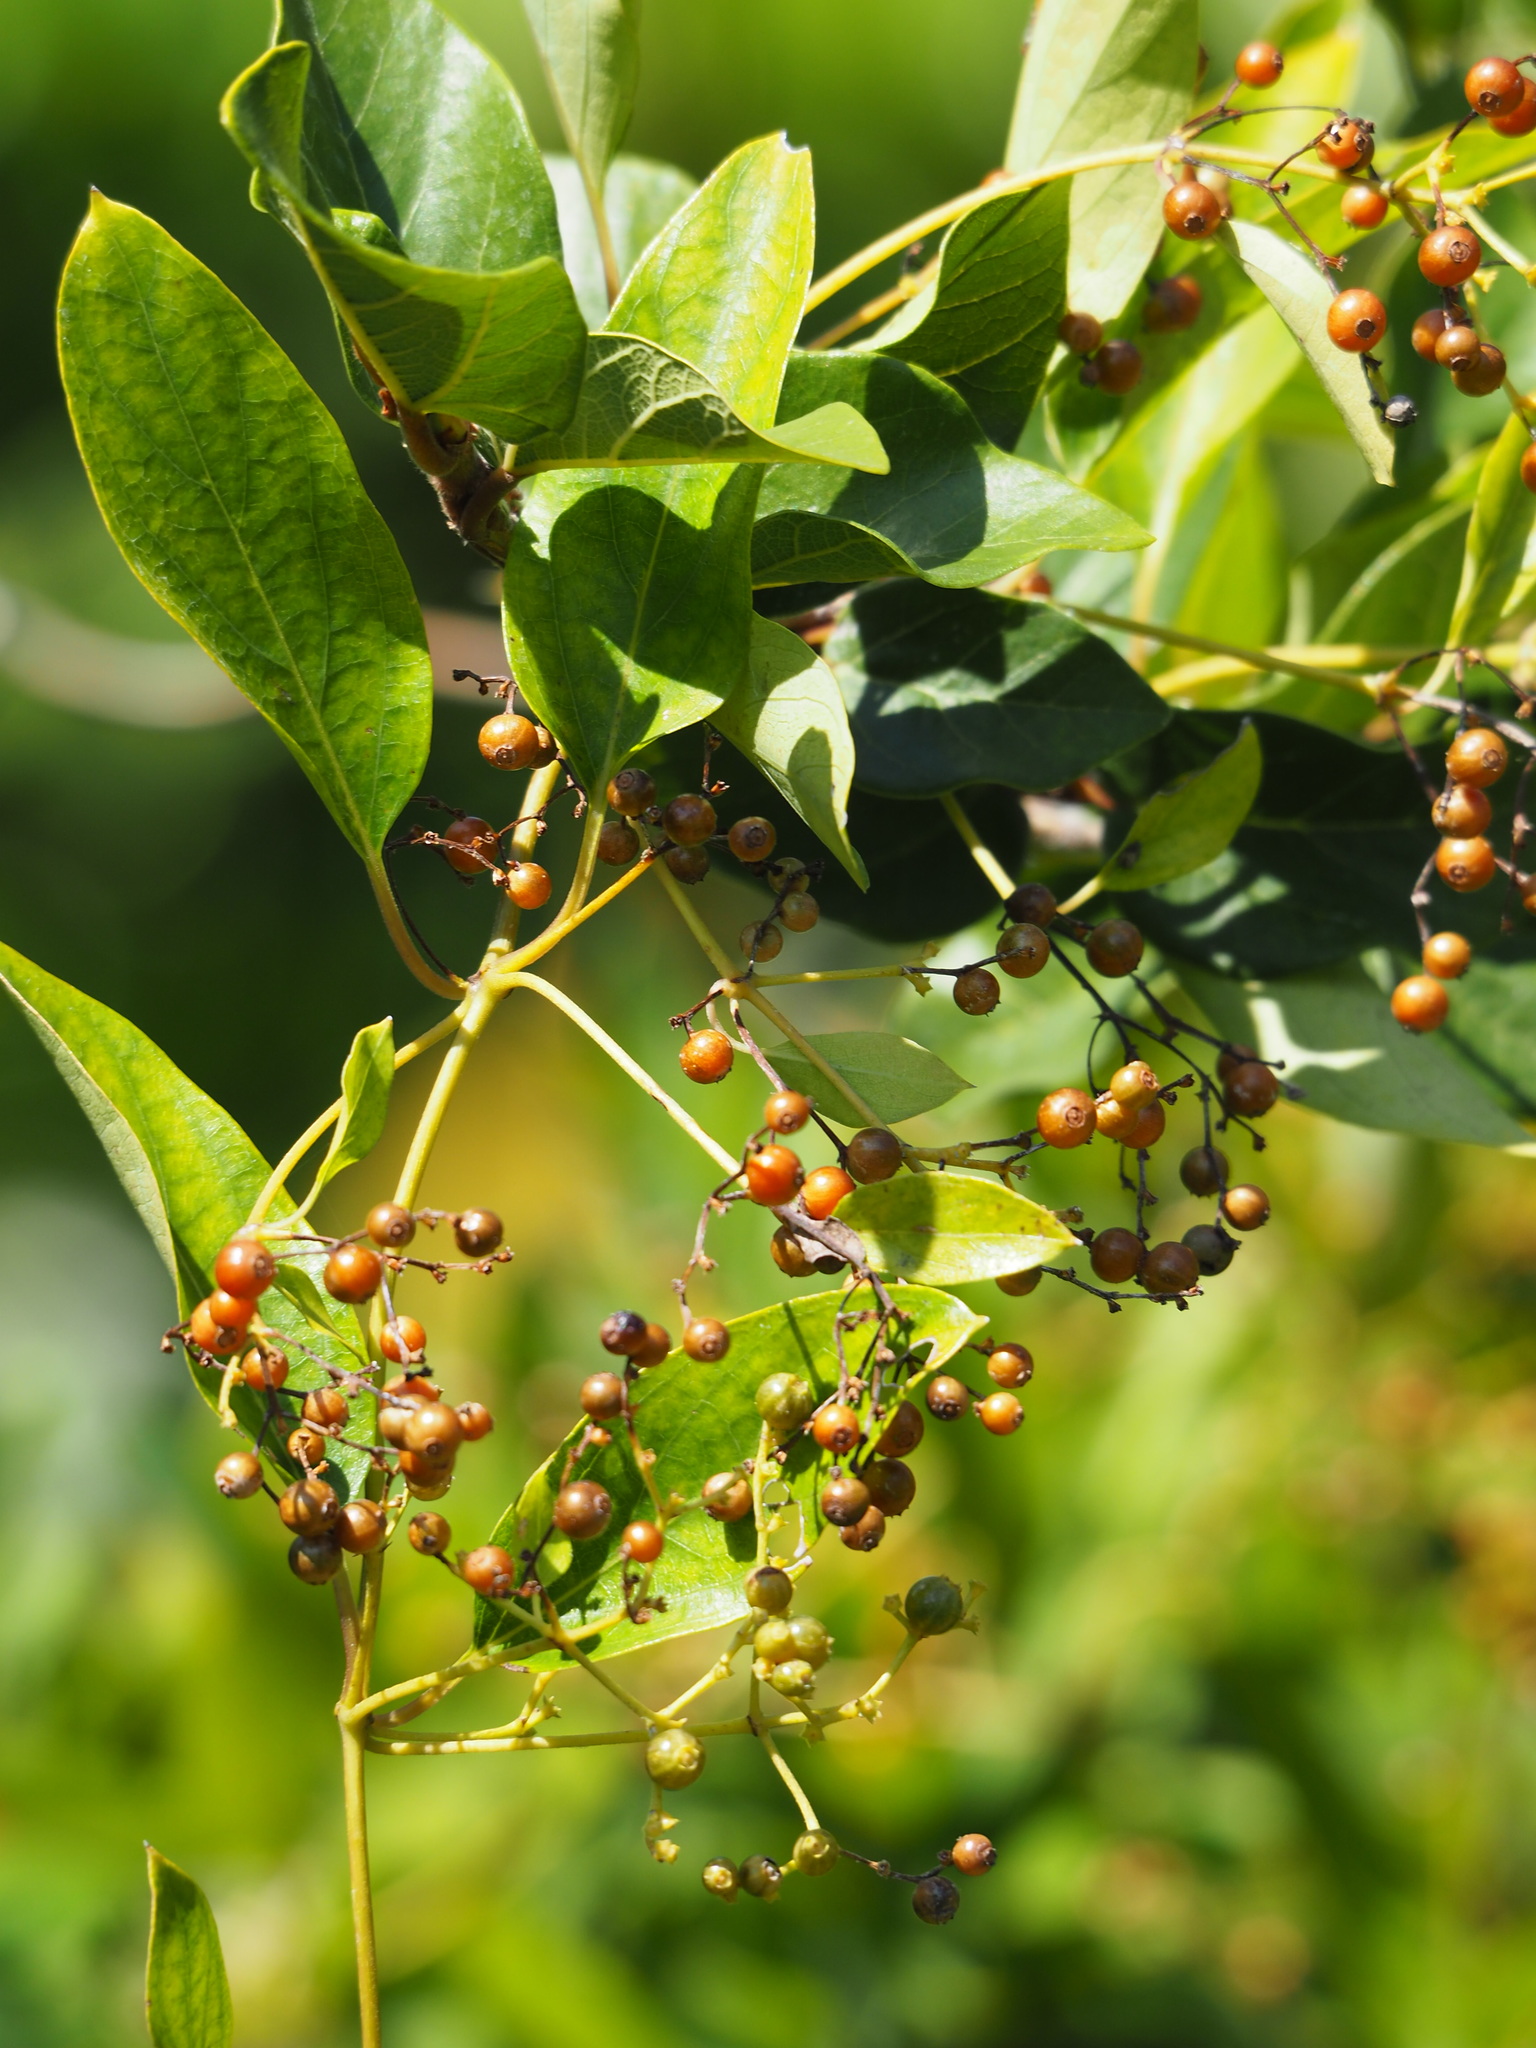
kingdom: Plantae
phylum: Tracheophyta
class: Magnoliopsida
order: Gentianales
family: Rubiaceae
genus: Paederia
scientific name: Paederia foetida
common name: Stinkvine
